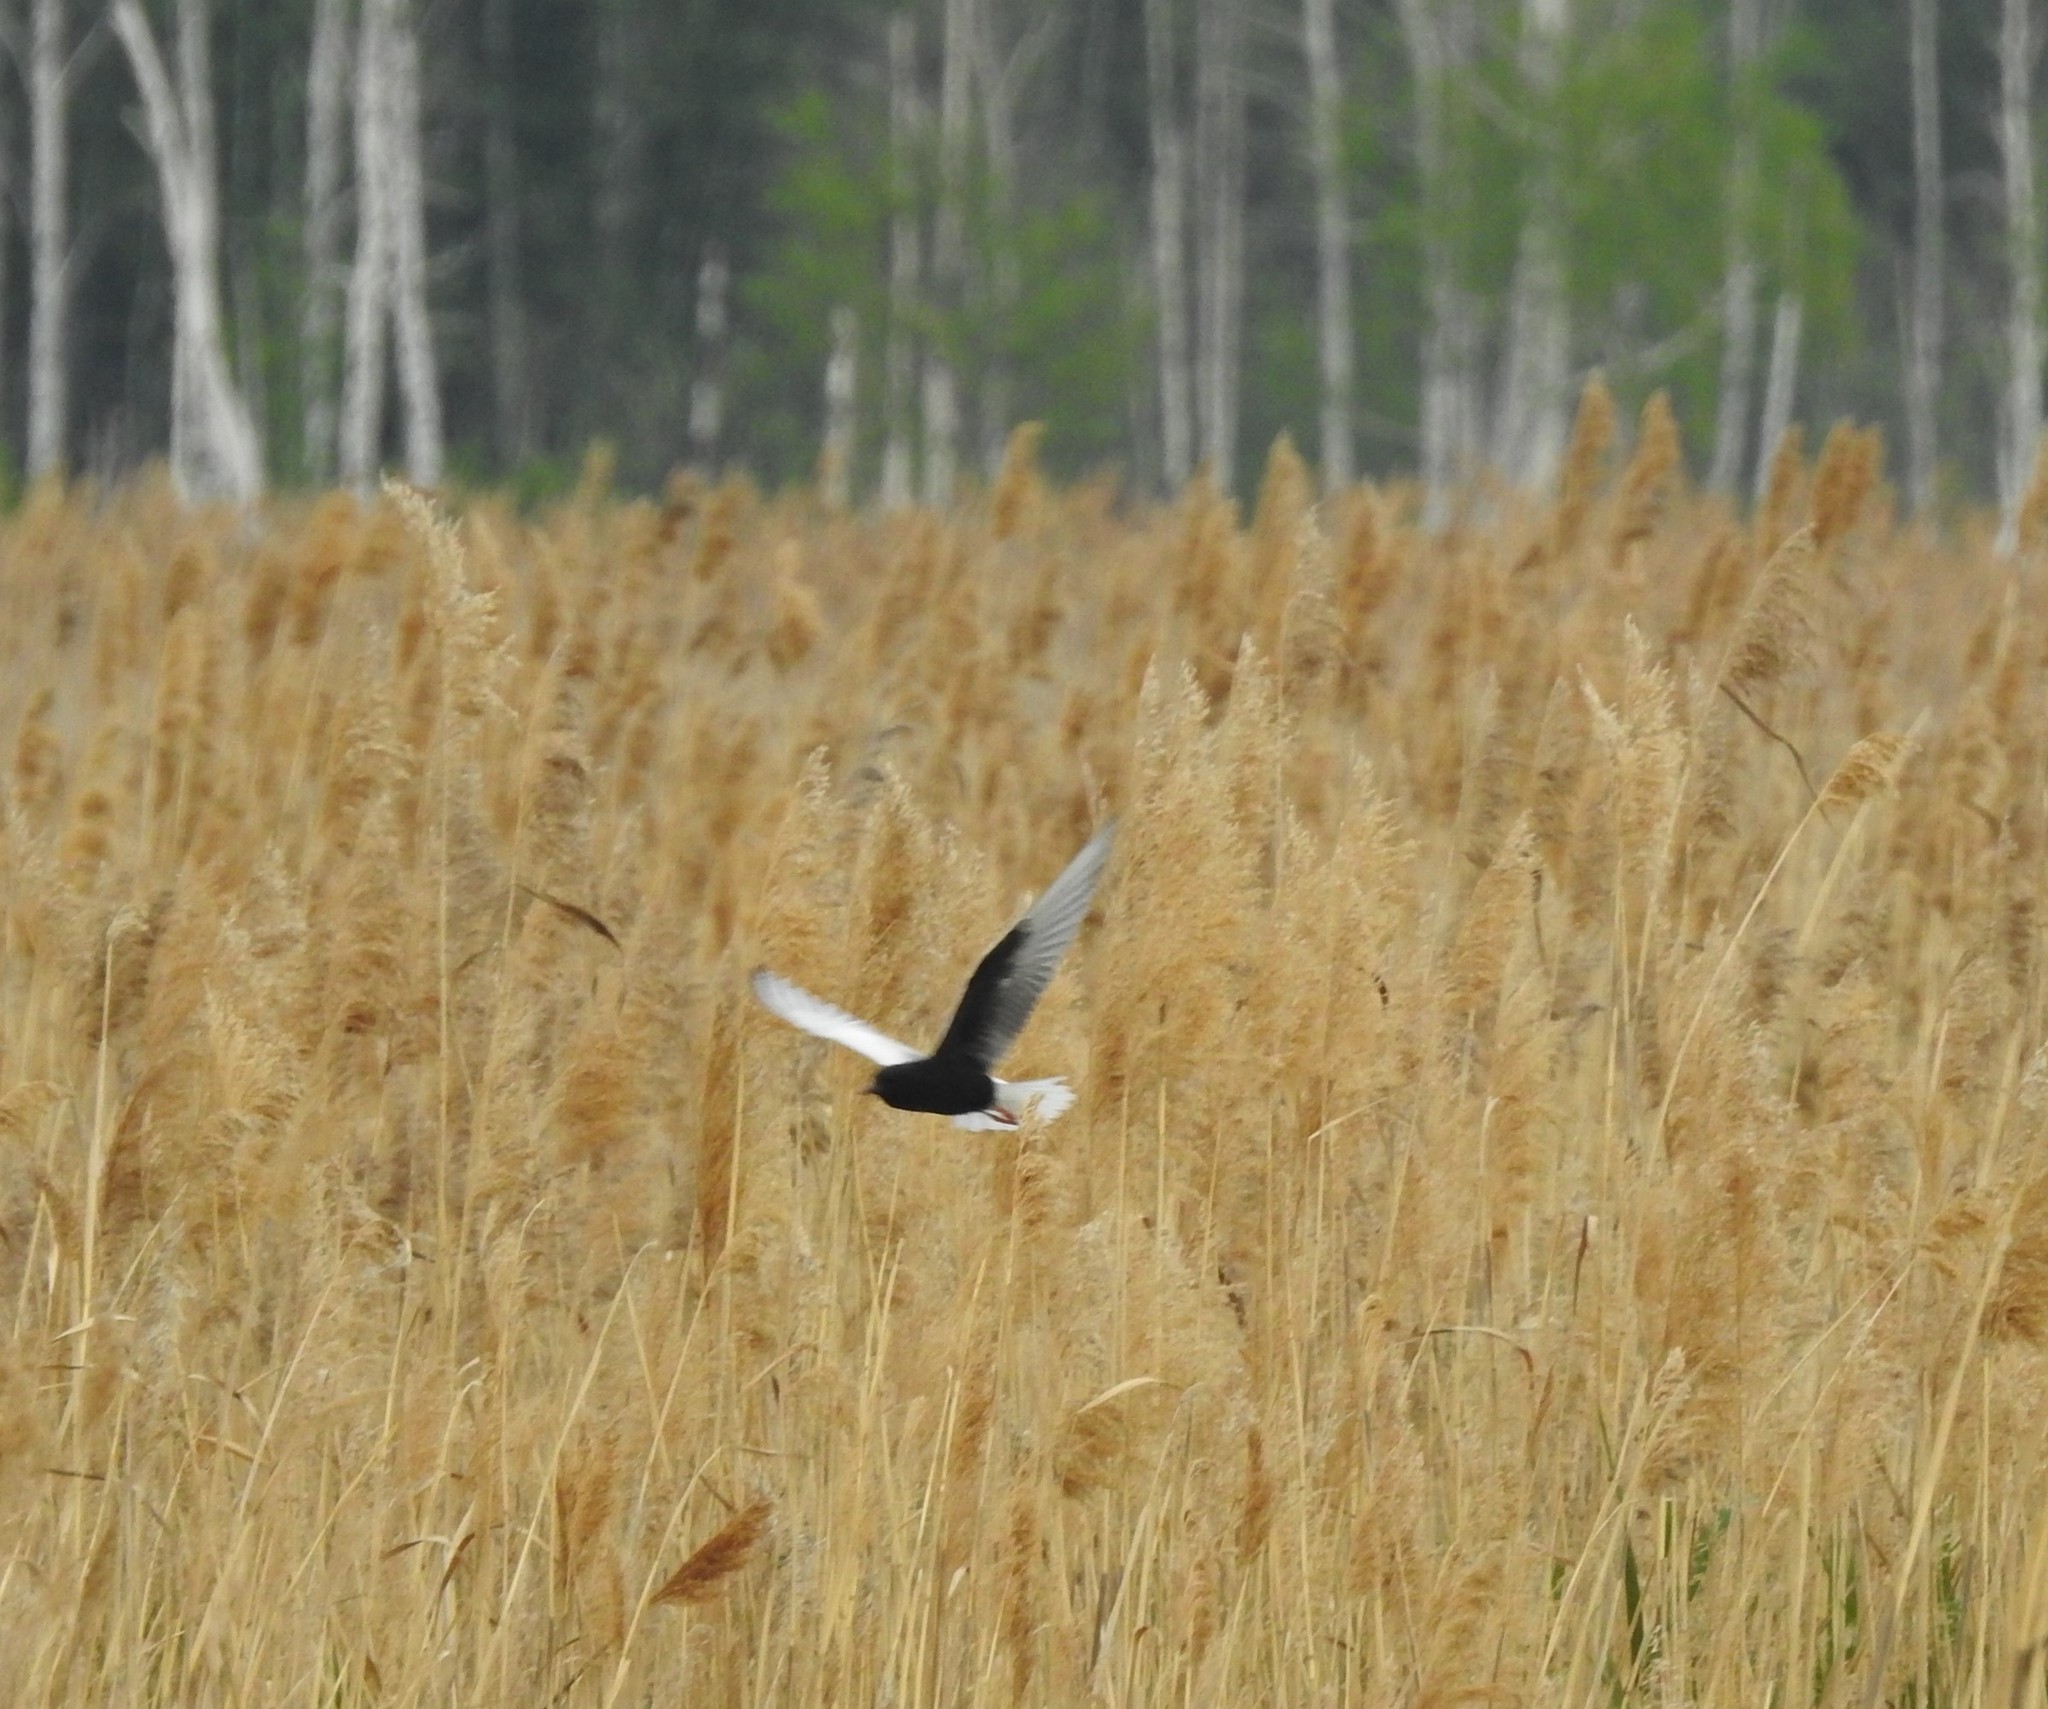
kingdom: Animalia
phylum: Chordata
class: Aves
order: Charadriiformes
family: Laridae
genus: Chlidonias
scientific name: Chlidonias leucopterus
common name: White-winged tern
